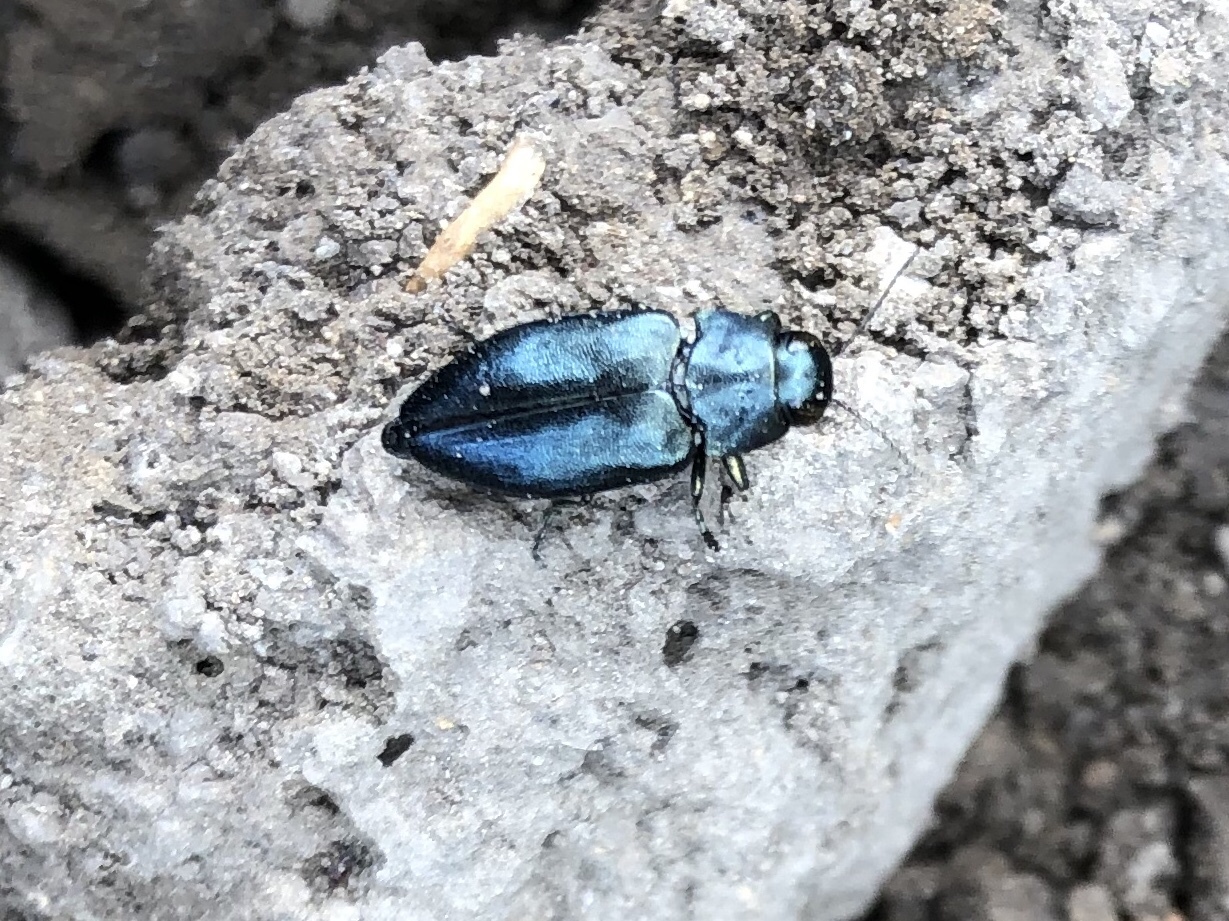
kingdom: Animalia
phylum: Arthropoda
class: Insecta
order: Coleoptera
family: Buprestidae
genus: Phaenops
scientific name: Phaenops cyanea
